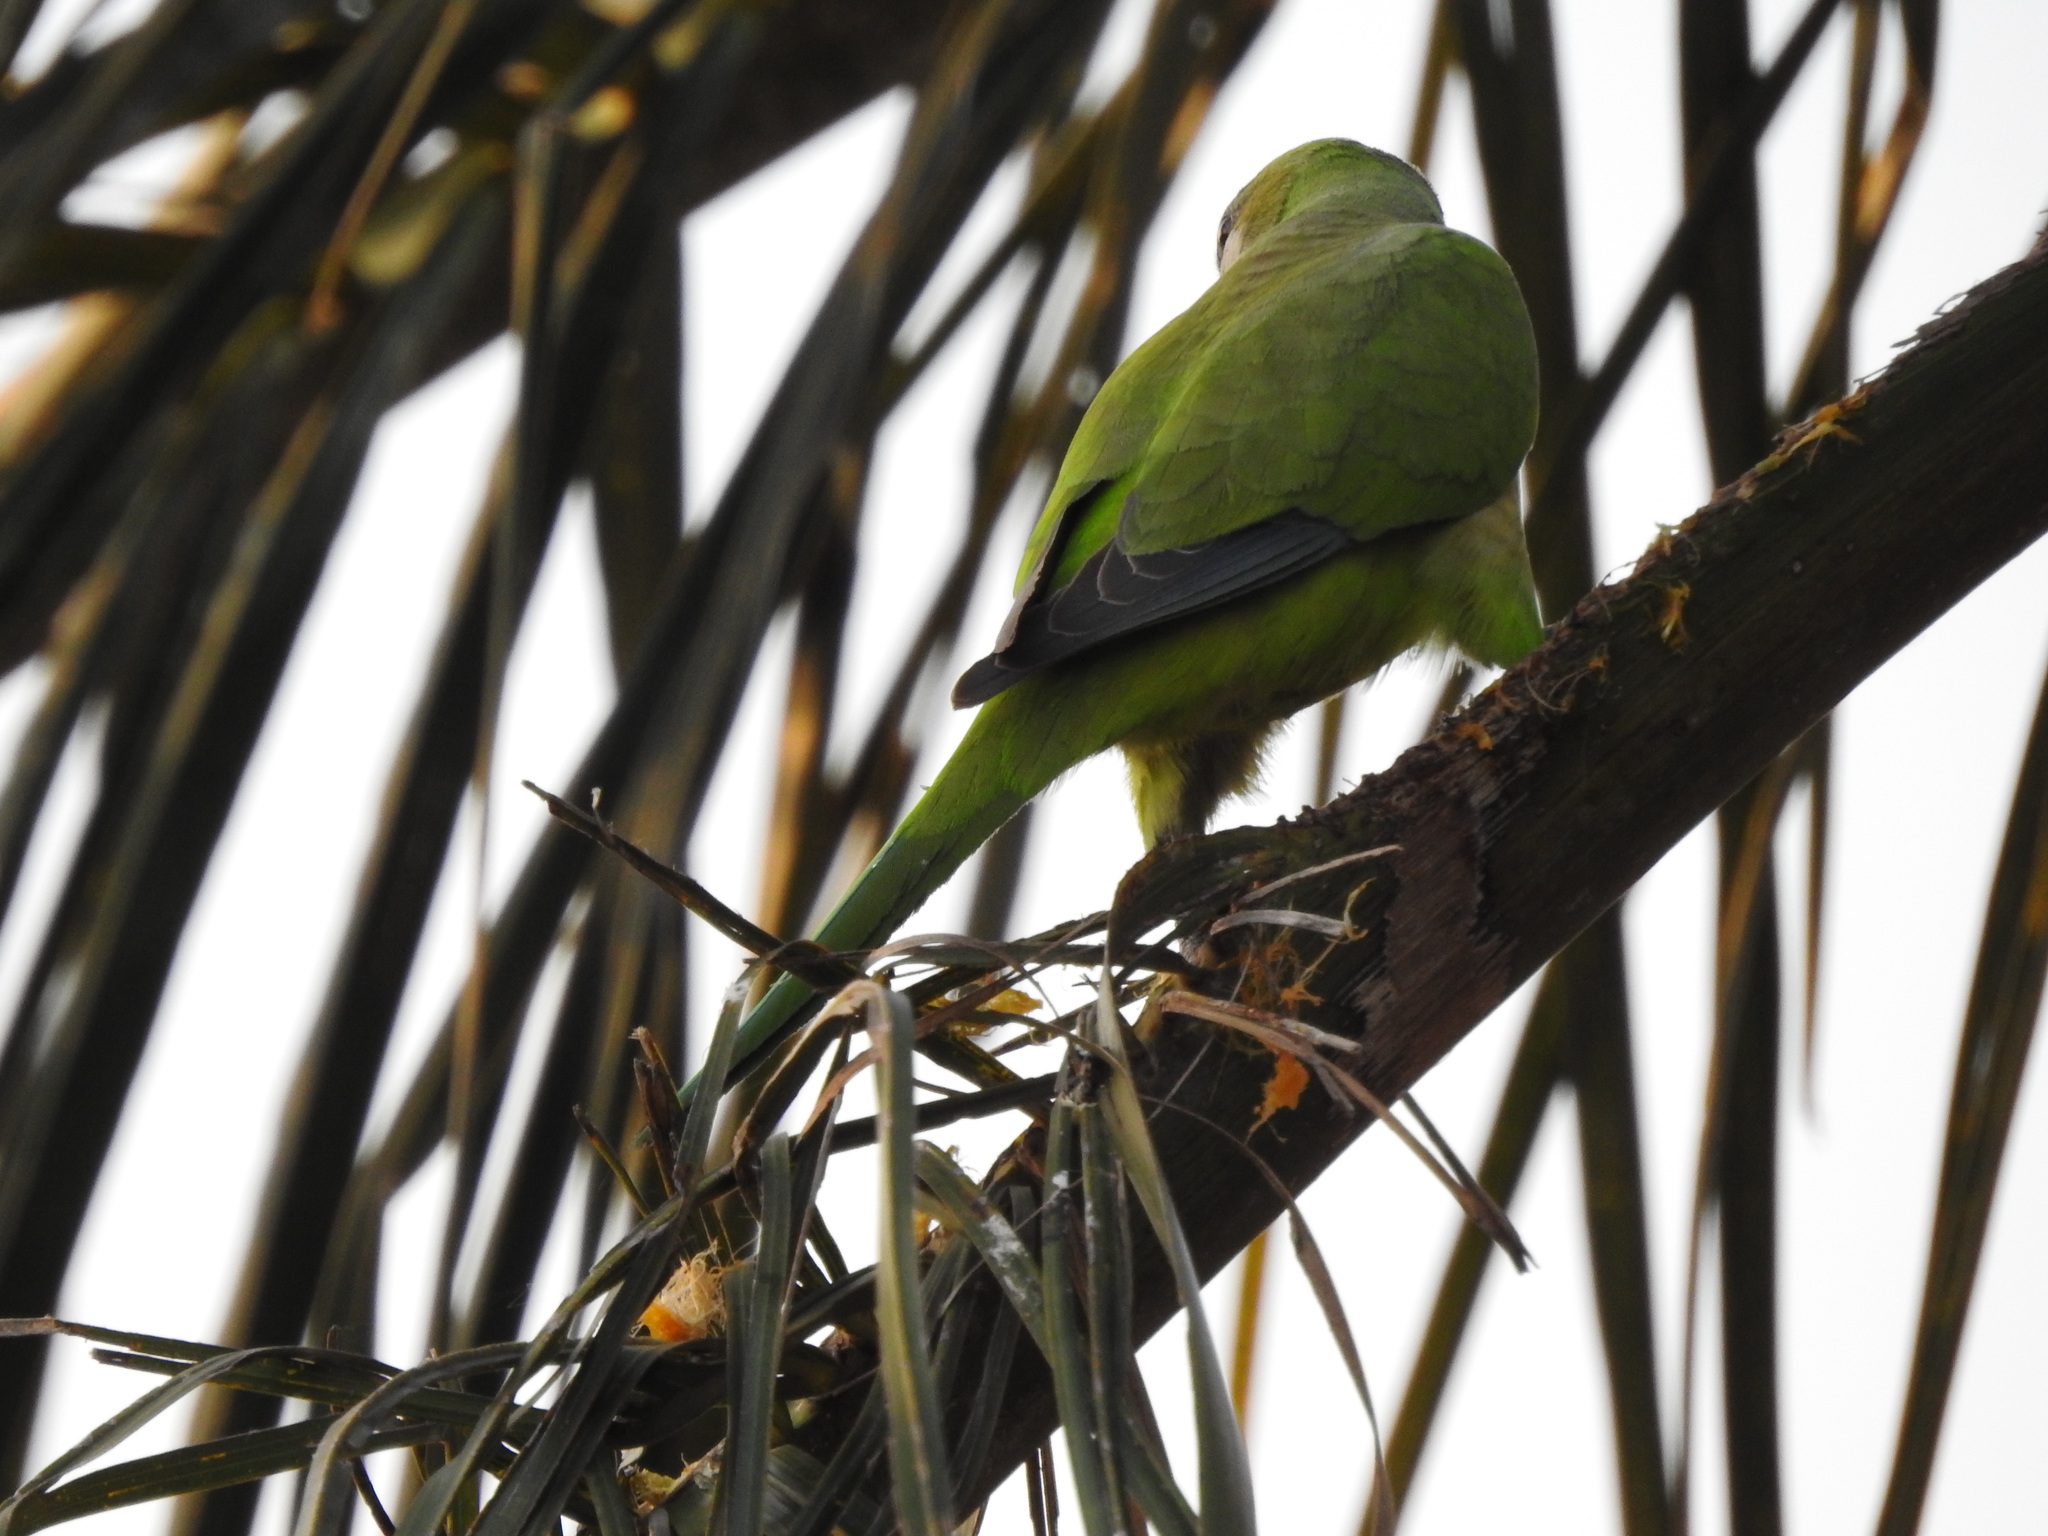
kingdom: Animalia
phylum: Chordata
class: Aves
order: Psittaciformes
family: Psittacidae
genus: Myiopsitta
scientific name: Myiopsitta monachus
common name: Monk parakeet
